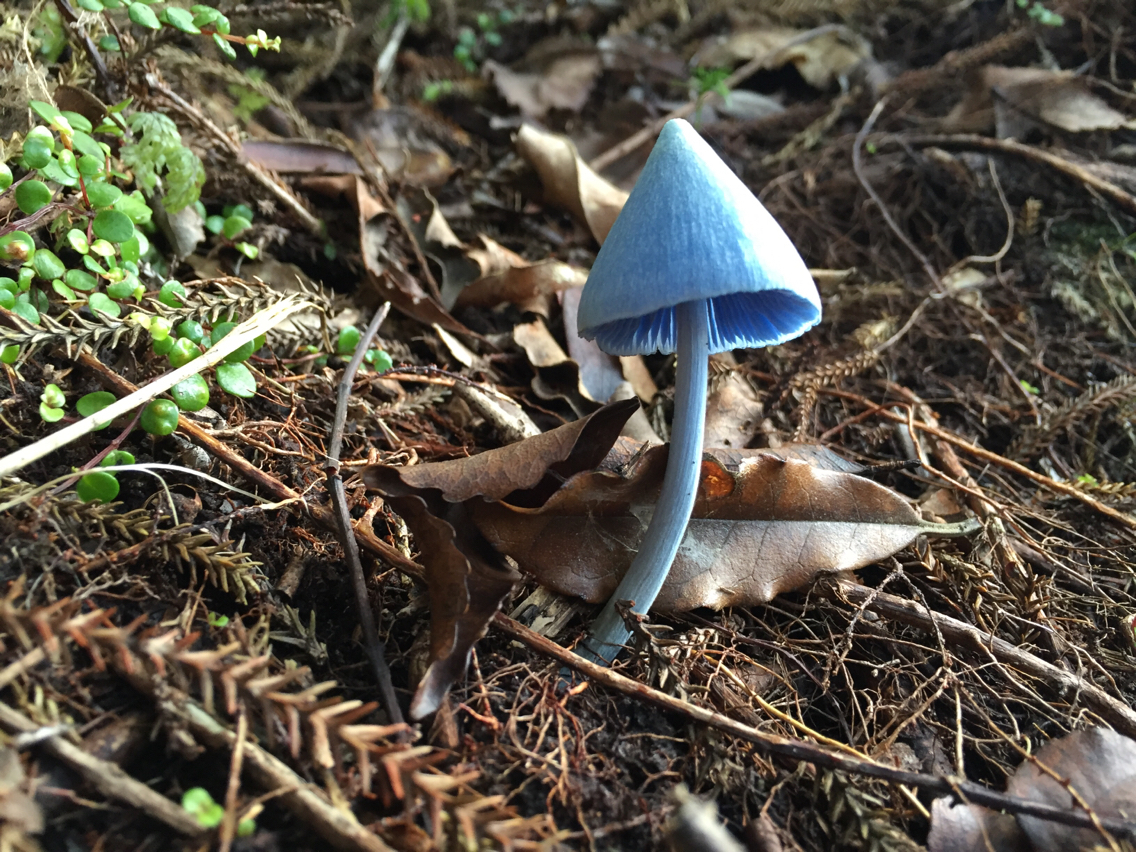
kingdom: Fungi
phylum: Basidiomycota
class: Agaricomycetes
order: Agaricales
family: Entolomataceae
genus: Entoloma
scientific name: Entoloma hochstetteri
